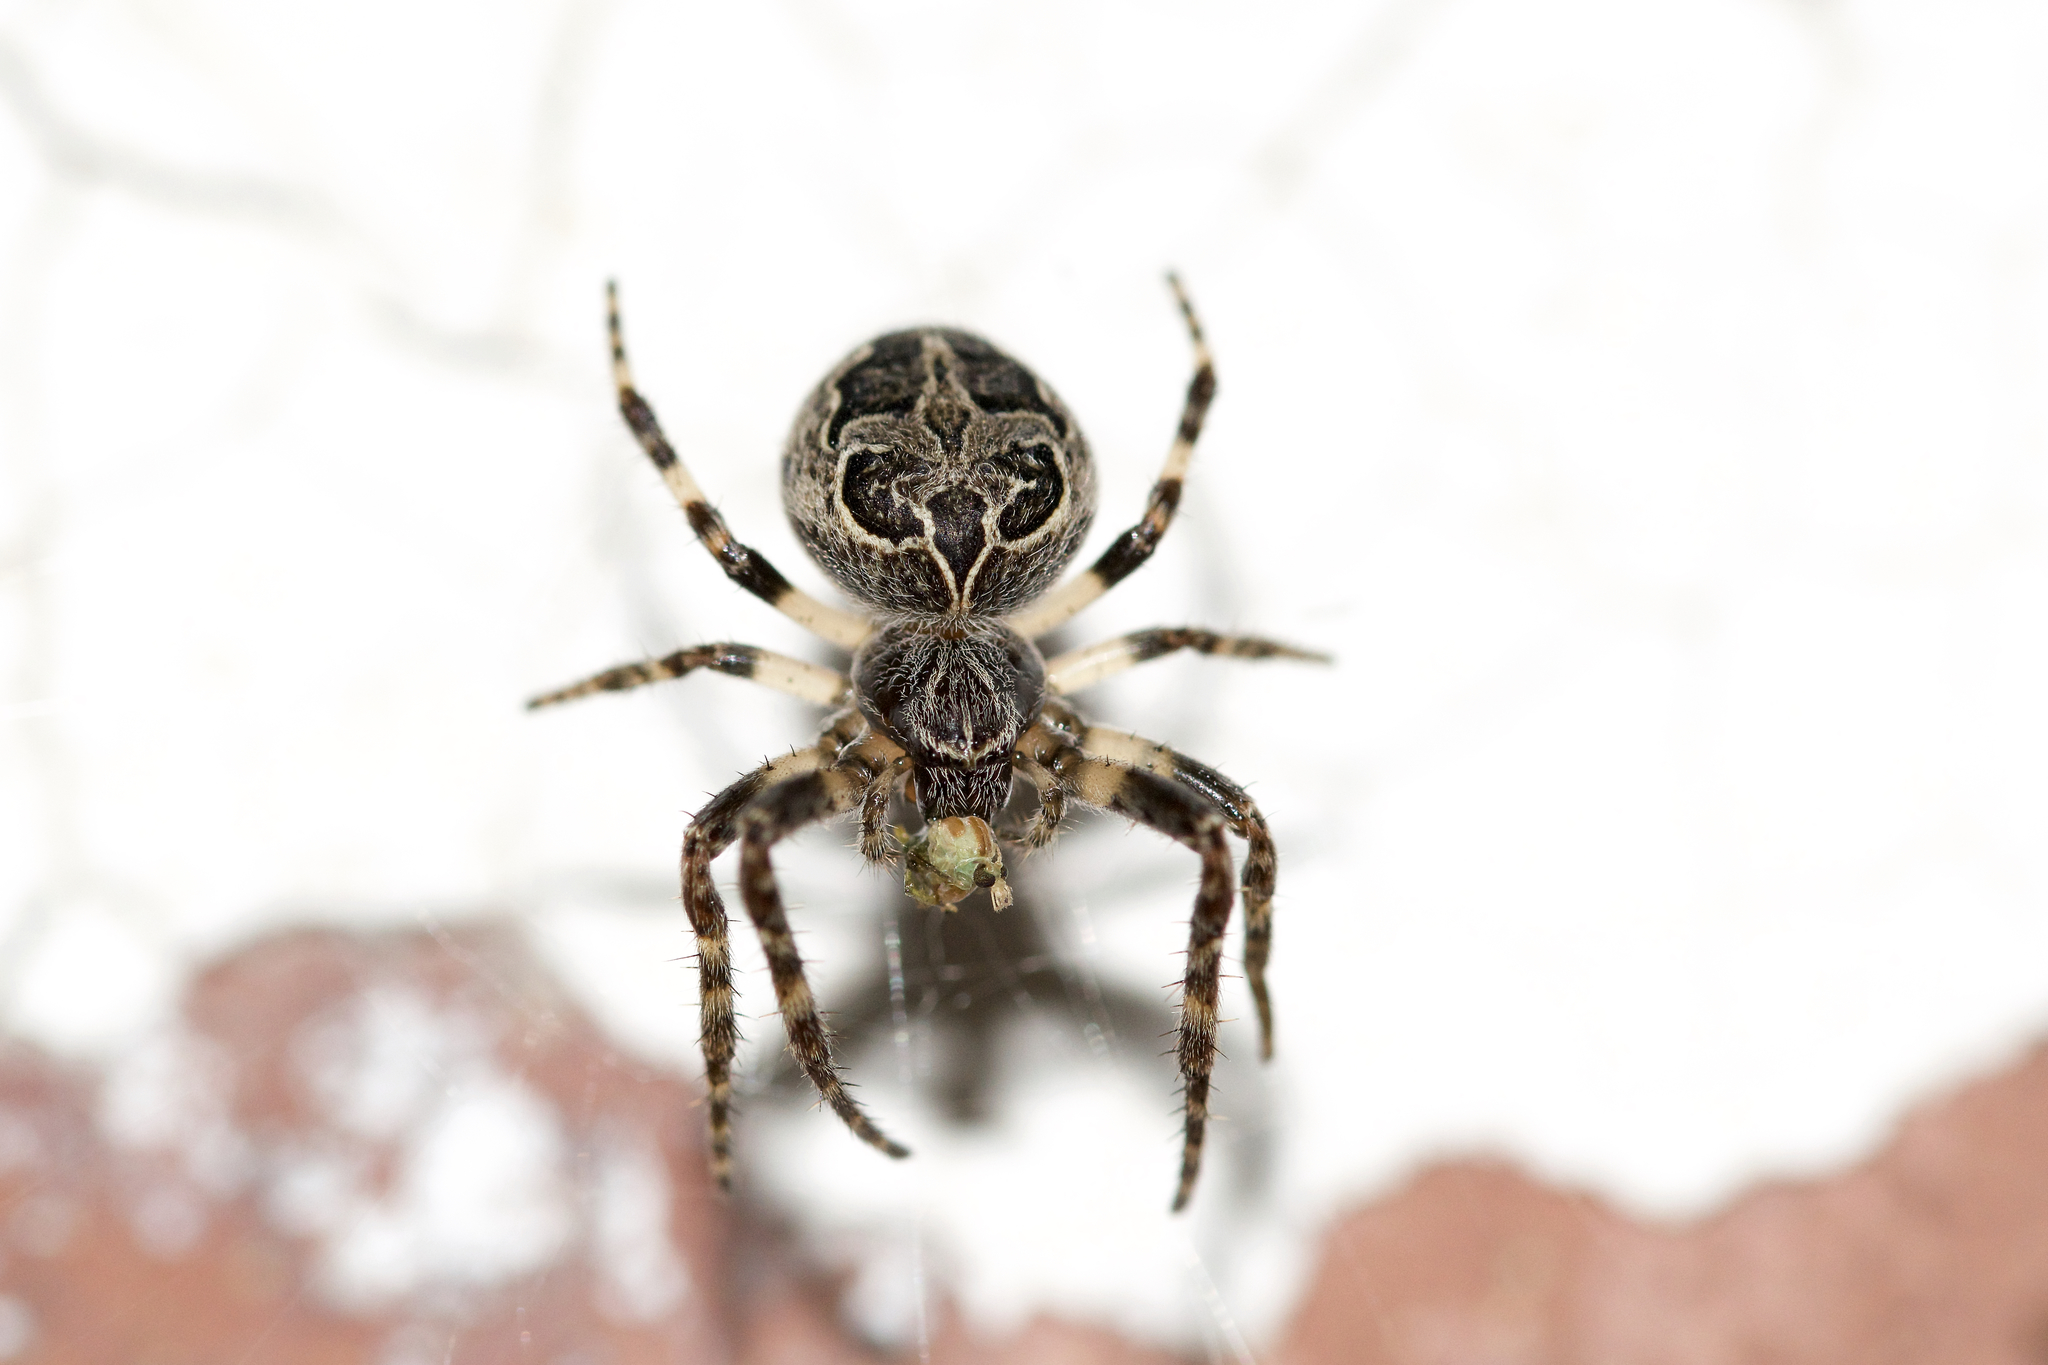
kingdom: Animalia
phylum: Arthropoda
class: Arachnida
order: Araneae
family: Araneidae
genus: Larinioides
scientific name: Larinioides sclopetarius
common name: Bridge orbweaver
